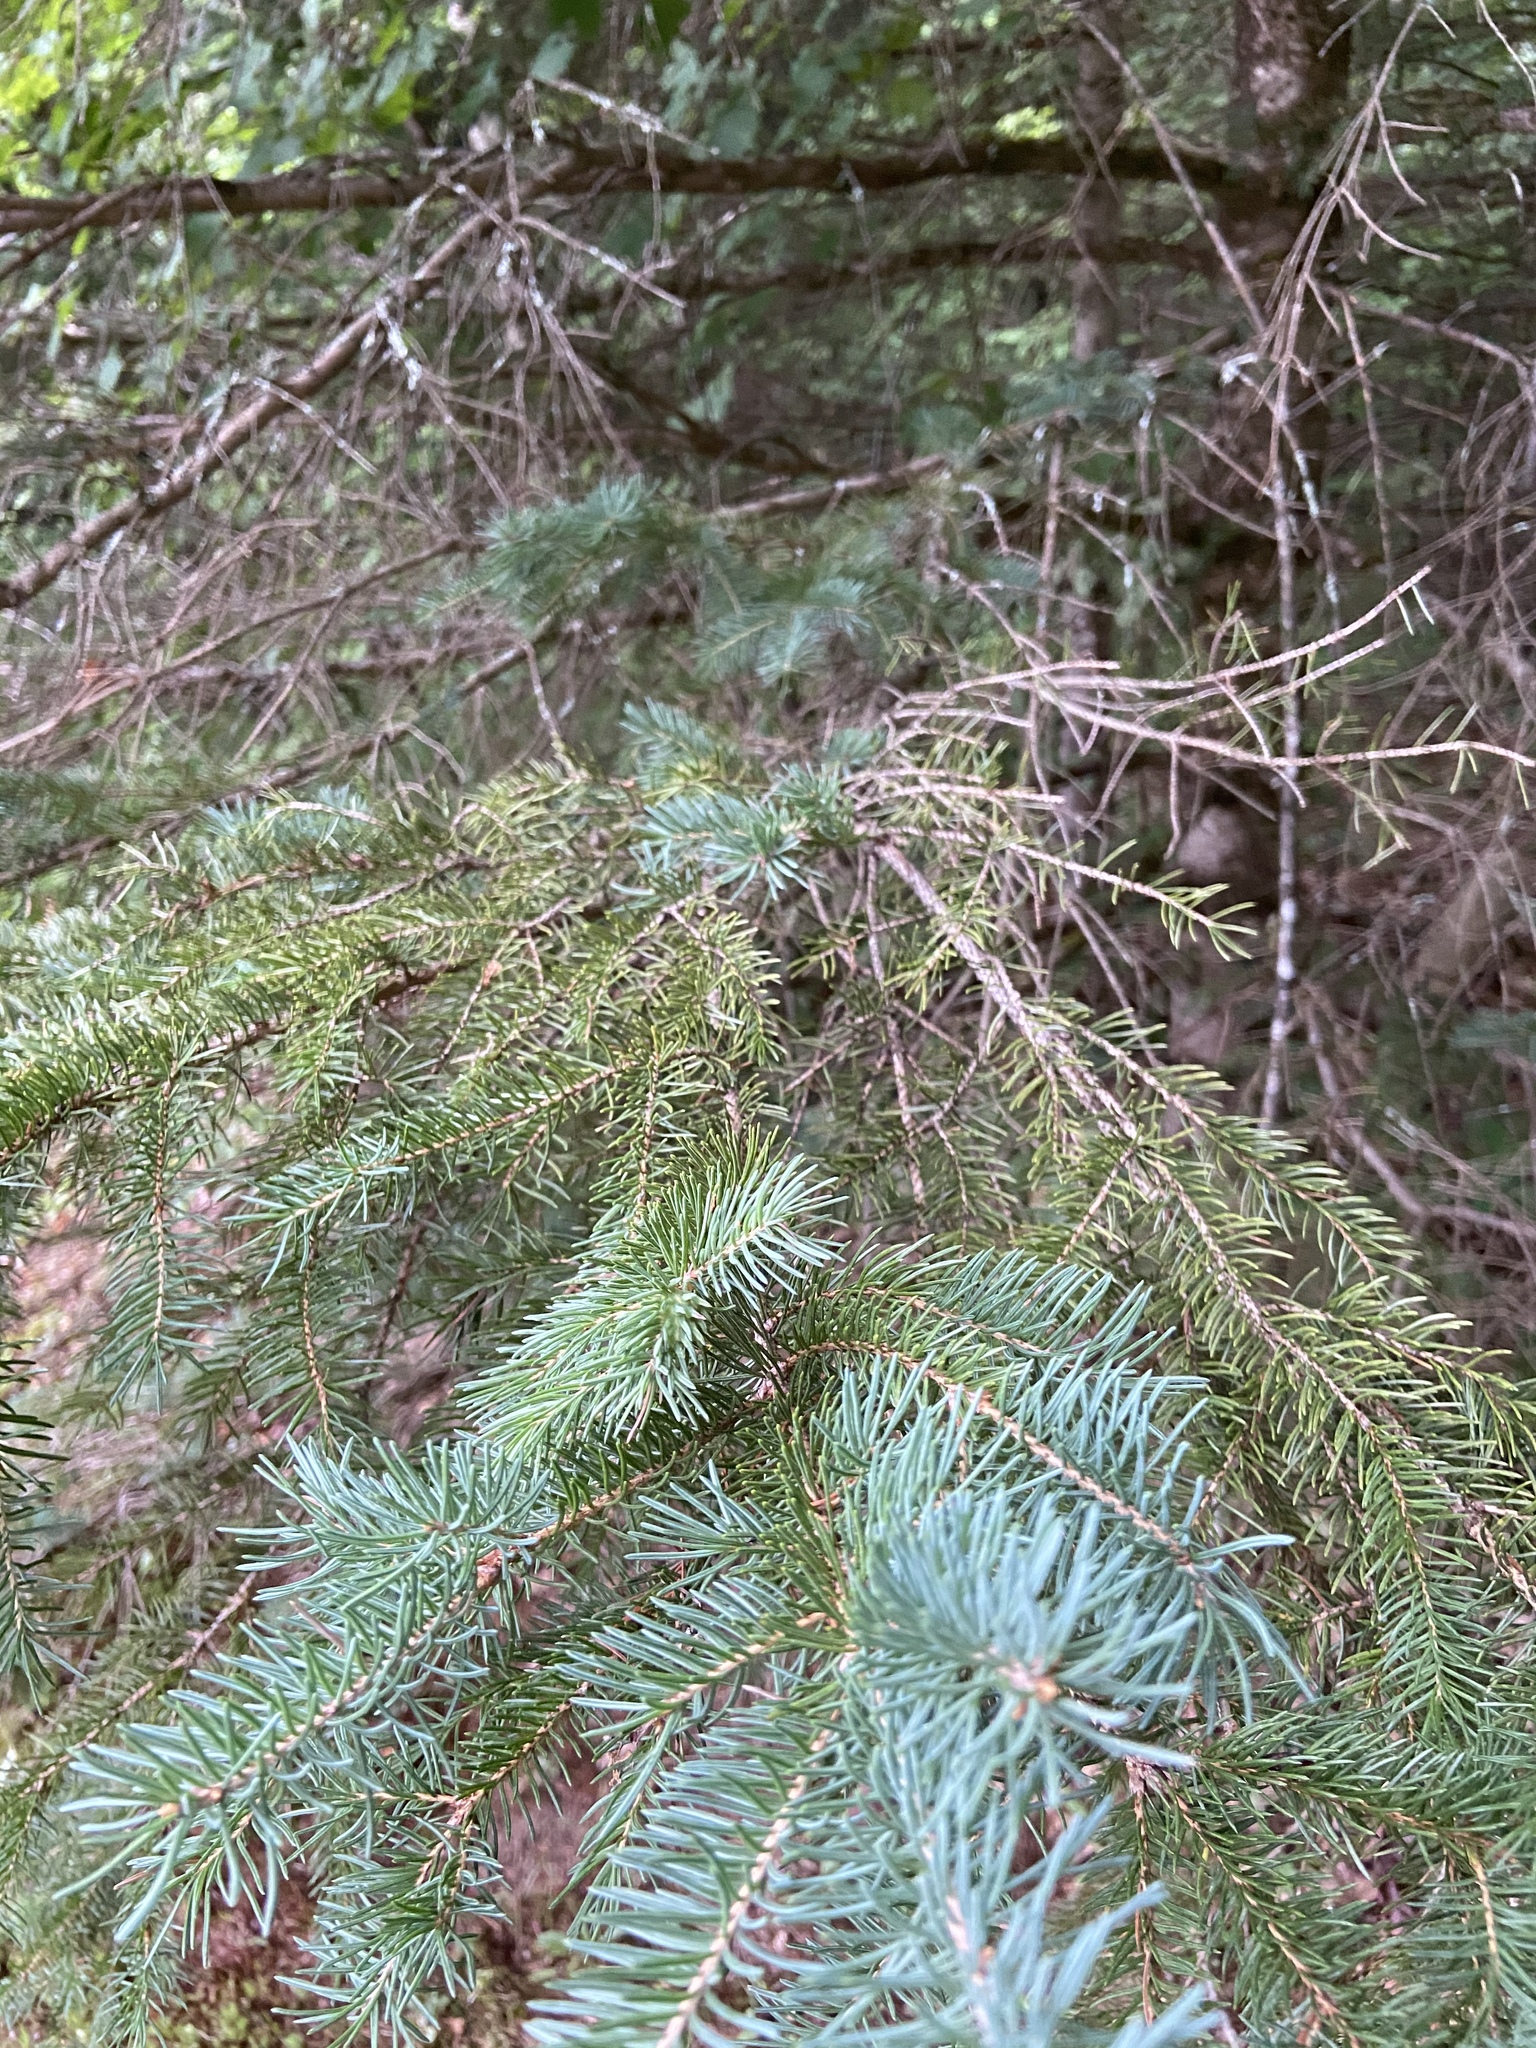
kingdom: Plantae
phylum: Tracheophyta
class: Pinopsida
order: Pinales
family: Pinaceae
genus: Picea
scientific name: Picea glauca
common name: White spruce
